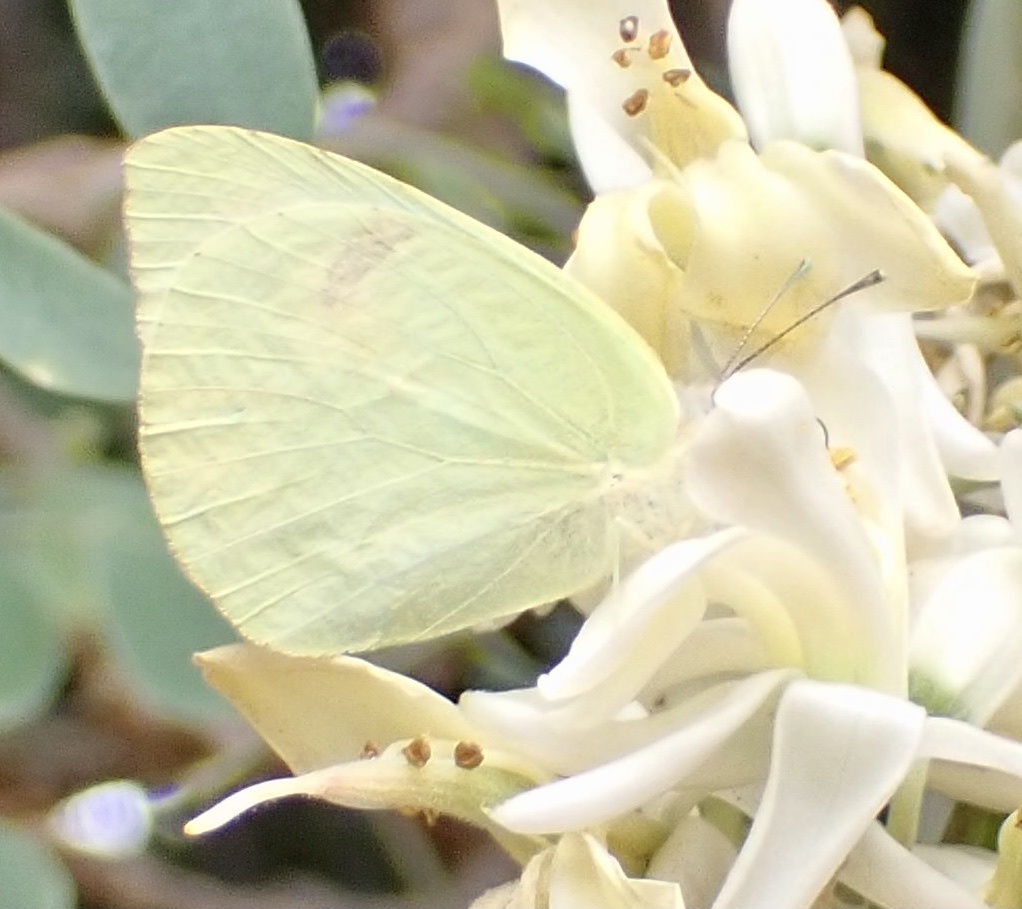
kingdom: Animalia
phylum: Arthropoda
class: Insecta
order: Lepidoptera
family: Pieridae
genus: Kricogonia
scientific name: Kricogonia lyside
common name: Guayacan sulphur,
